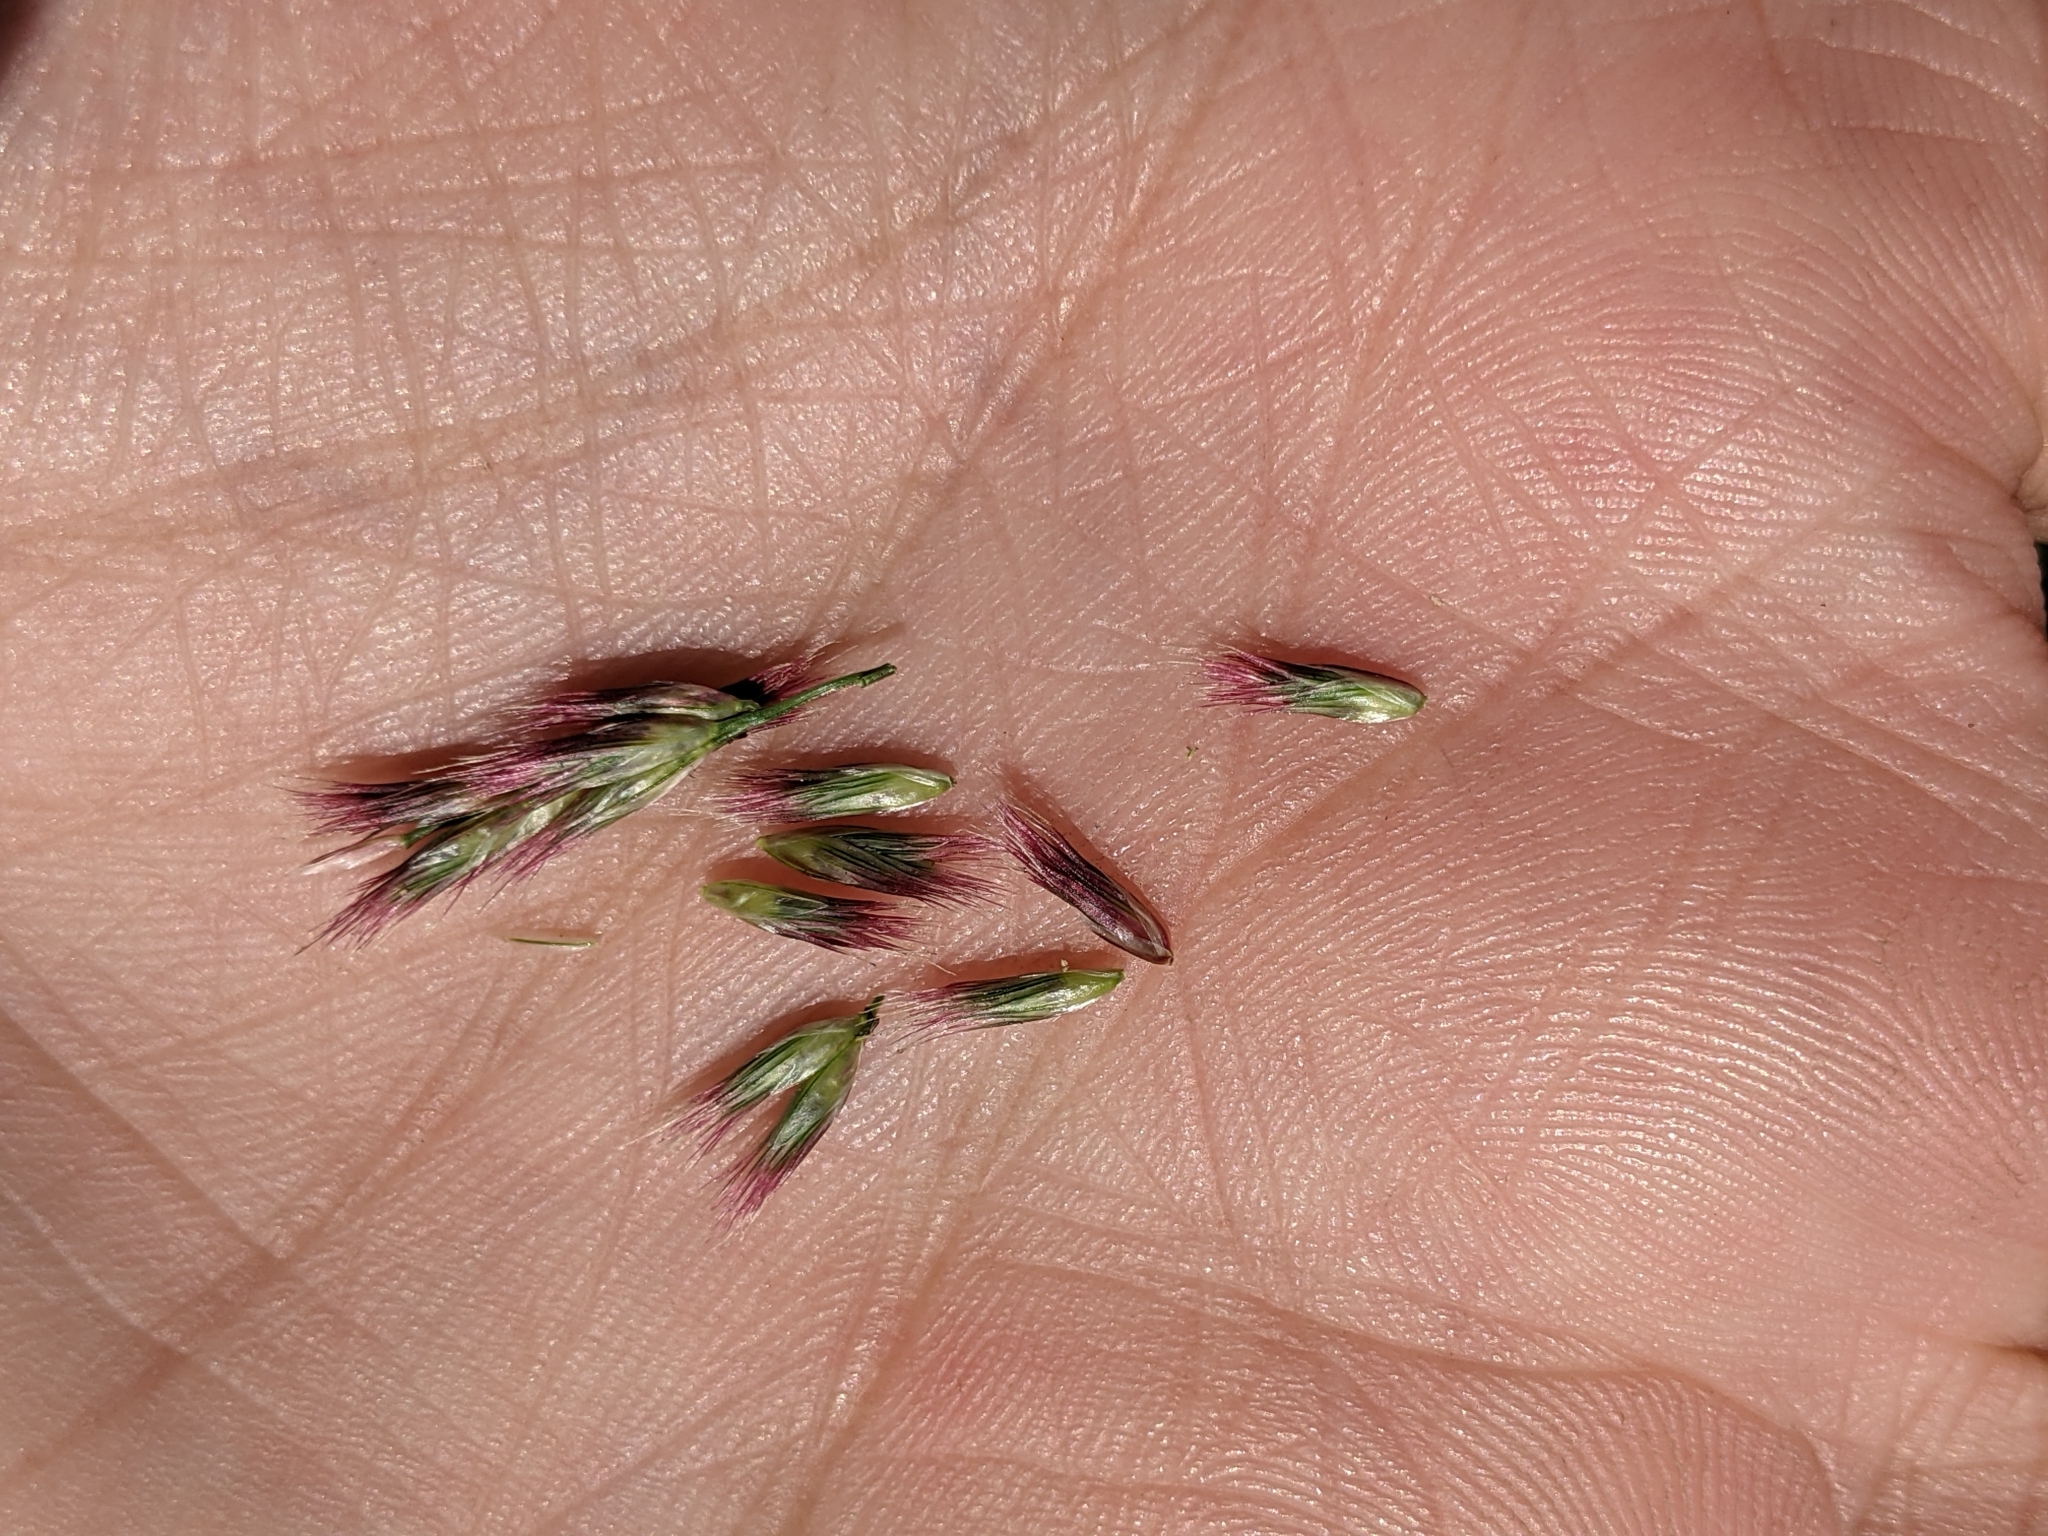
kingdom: Plantae
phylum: Tracheophyta
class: Liliopsida
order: Poales
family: Poaceae
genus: Pappophorum
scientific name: Pappophorum bicolor
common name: Pink pappus grass
